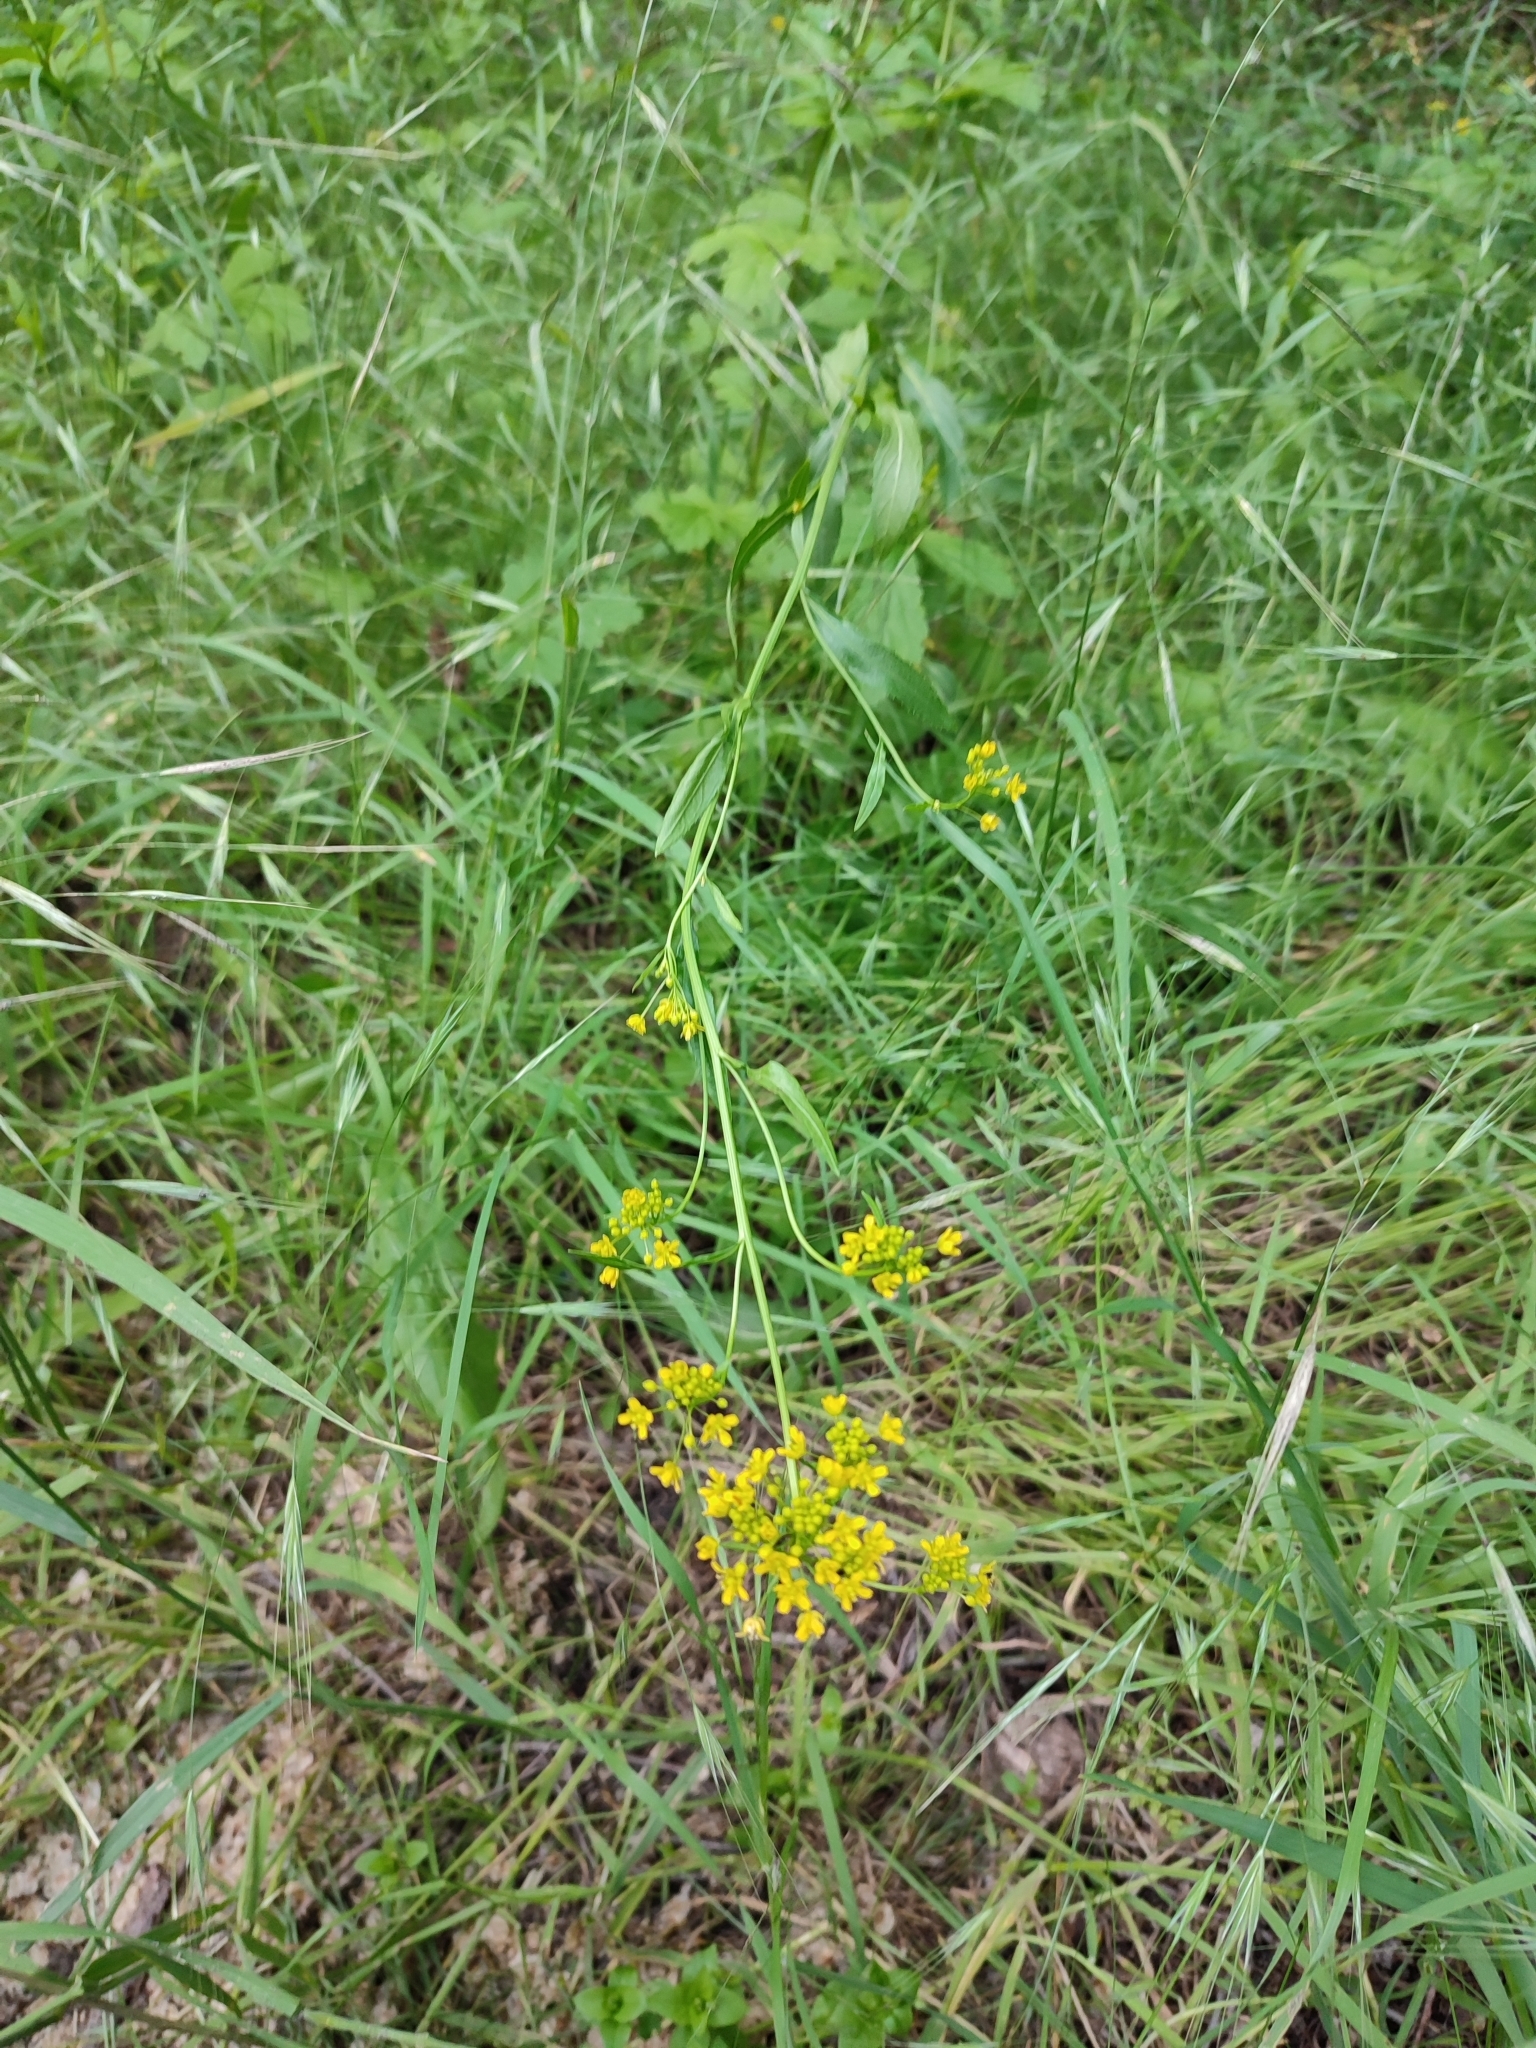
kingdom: Plantae
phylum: Tracheophyta
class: Magnoliopsida
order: Brassicales
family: Brassicaceae
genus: Rorippa
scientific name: Rorippa austriaca
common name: Austrian yellow-cress
